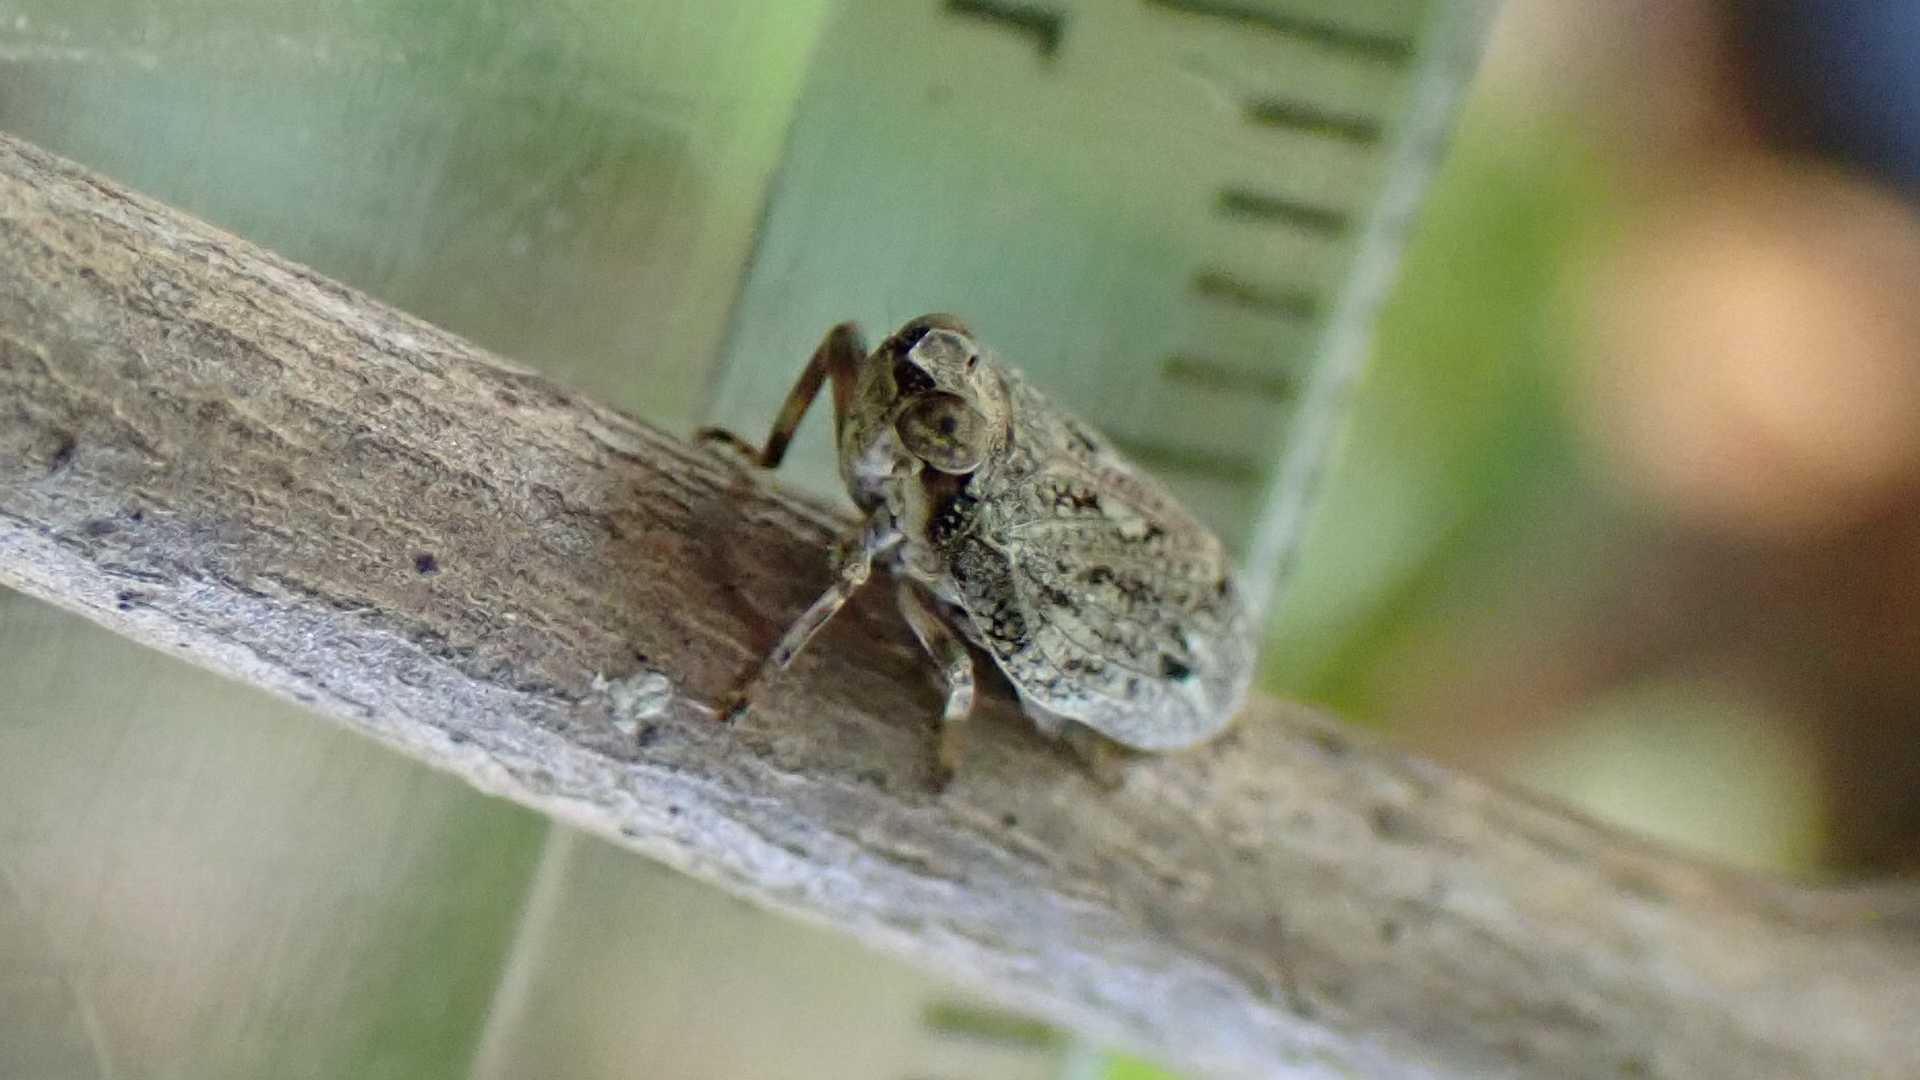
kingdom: Animalia
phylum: Arthropoda
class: Insecta
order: Hemiptera
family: Issidae
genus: Issus
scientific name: Issus coleoptratus
